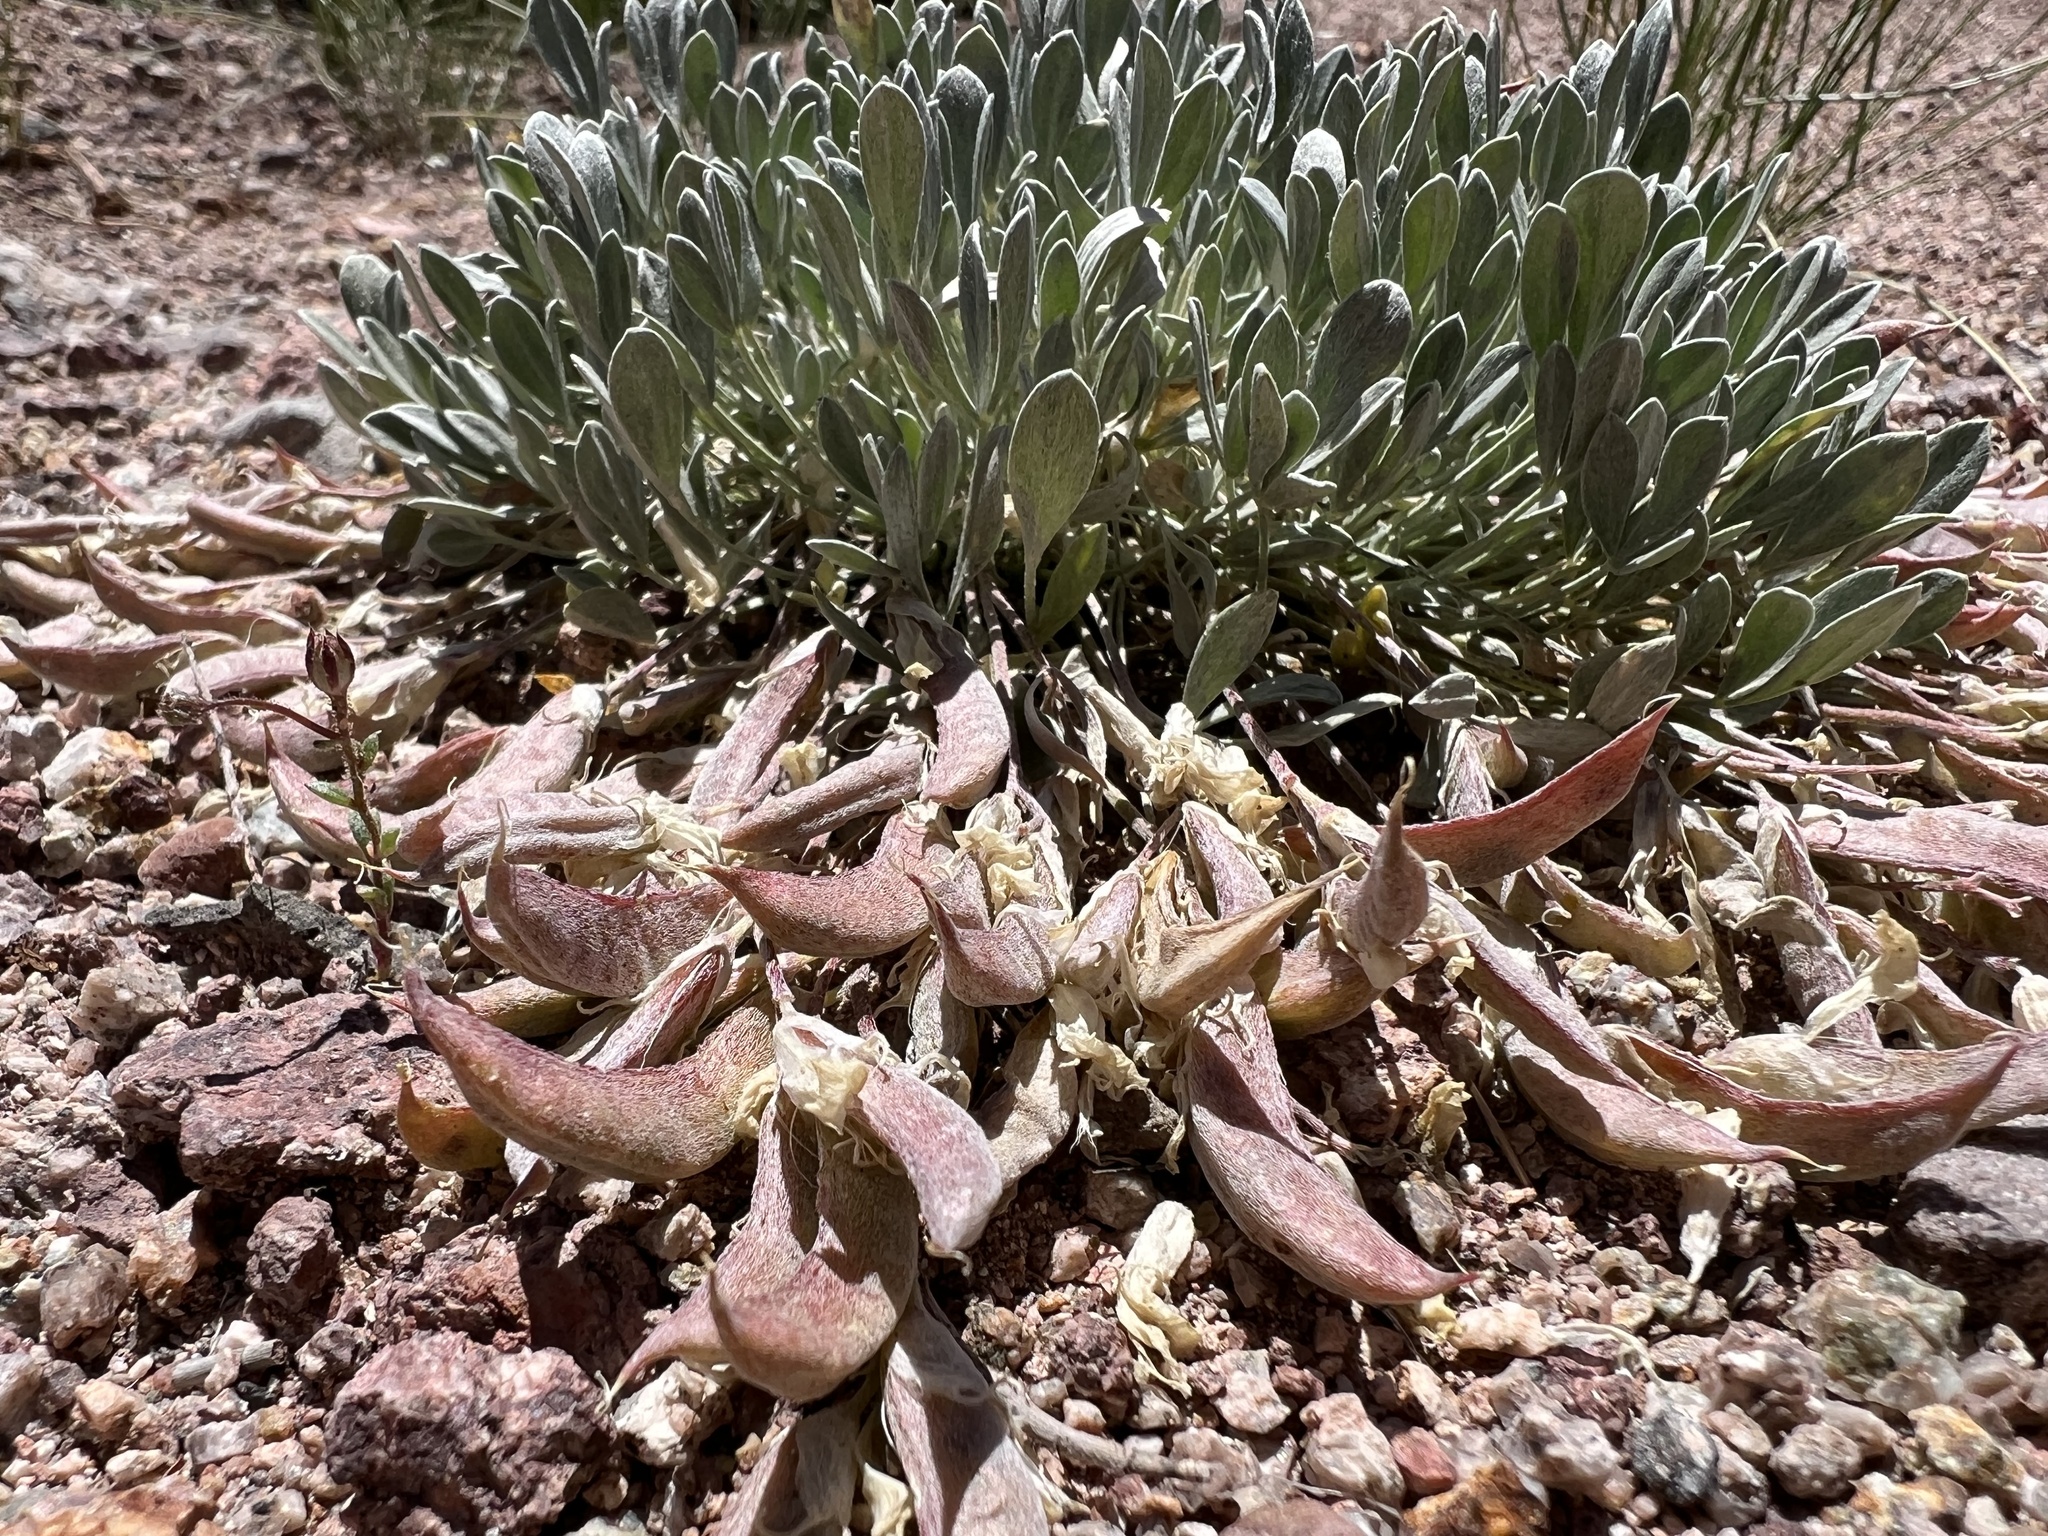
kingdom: Plantae
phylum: Tracheophyta
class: Magnoliopsida
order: Fabales
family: Fabaceae
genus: Astragalus
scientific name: Astragalus calycosus
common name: King's milkvetch
